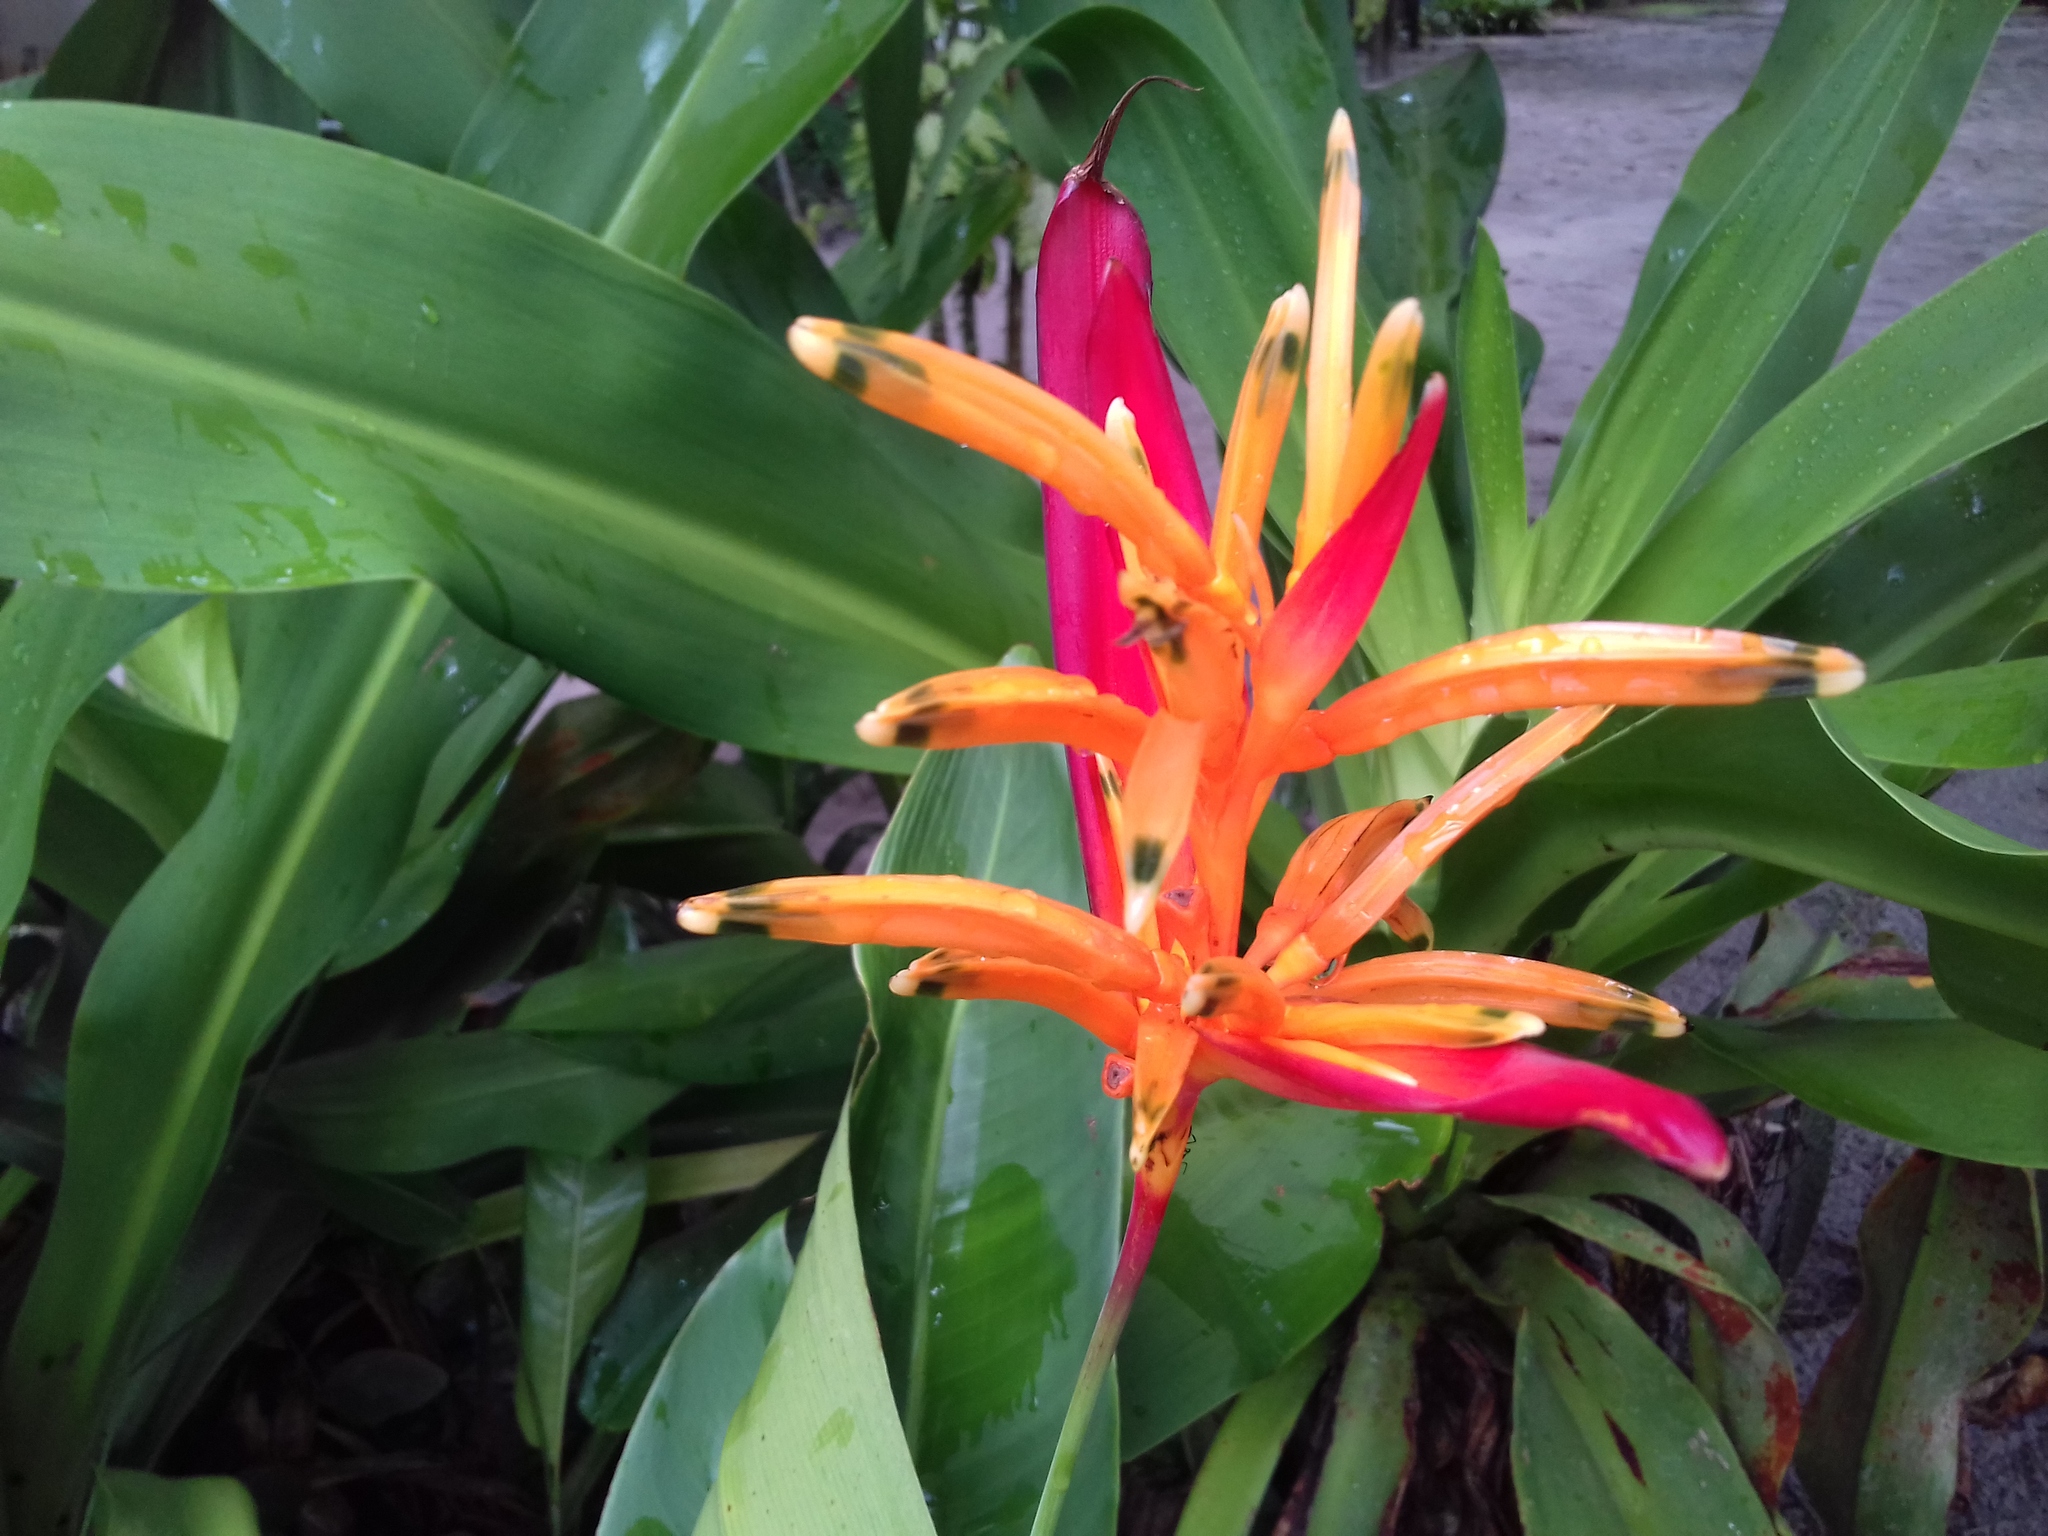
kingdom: Plantae
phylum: Tracheophyta
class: Liliopsida
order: Zingiberales
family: Heliconiaceae
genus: Heliconia
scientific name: Heliconia psittacorum
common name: Parrot's-flower
